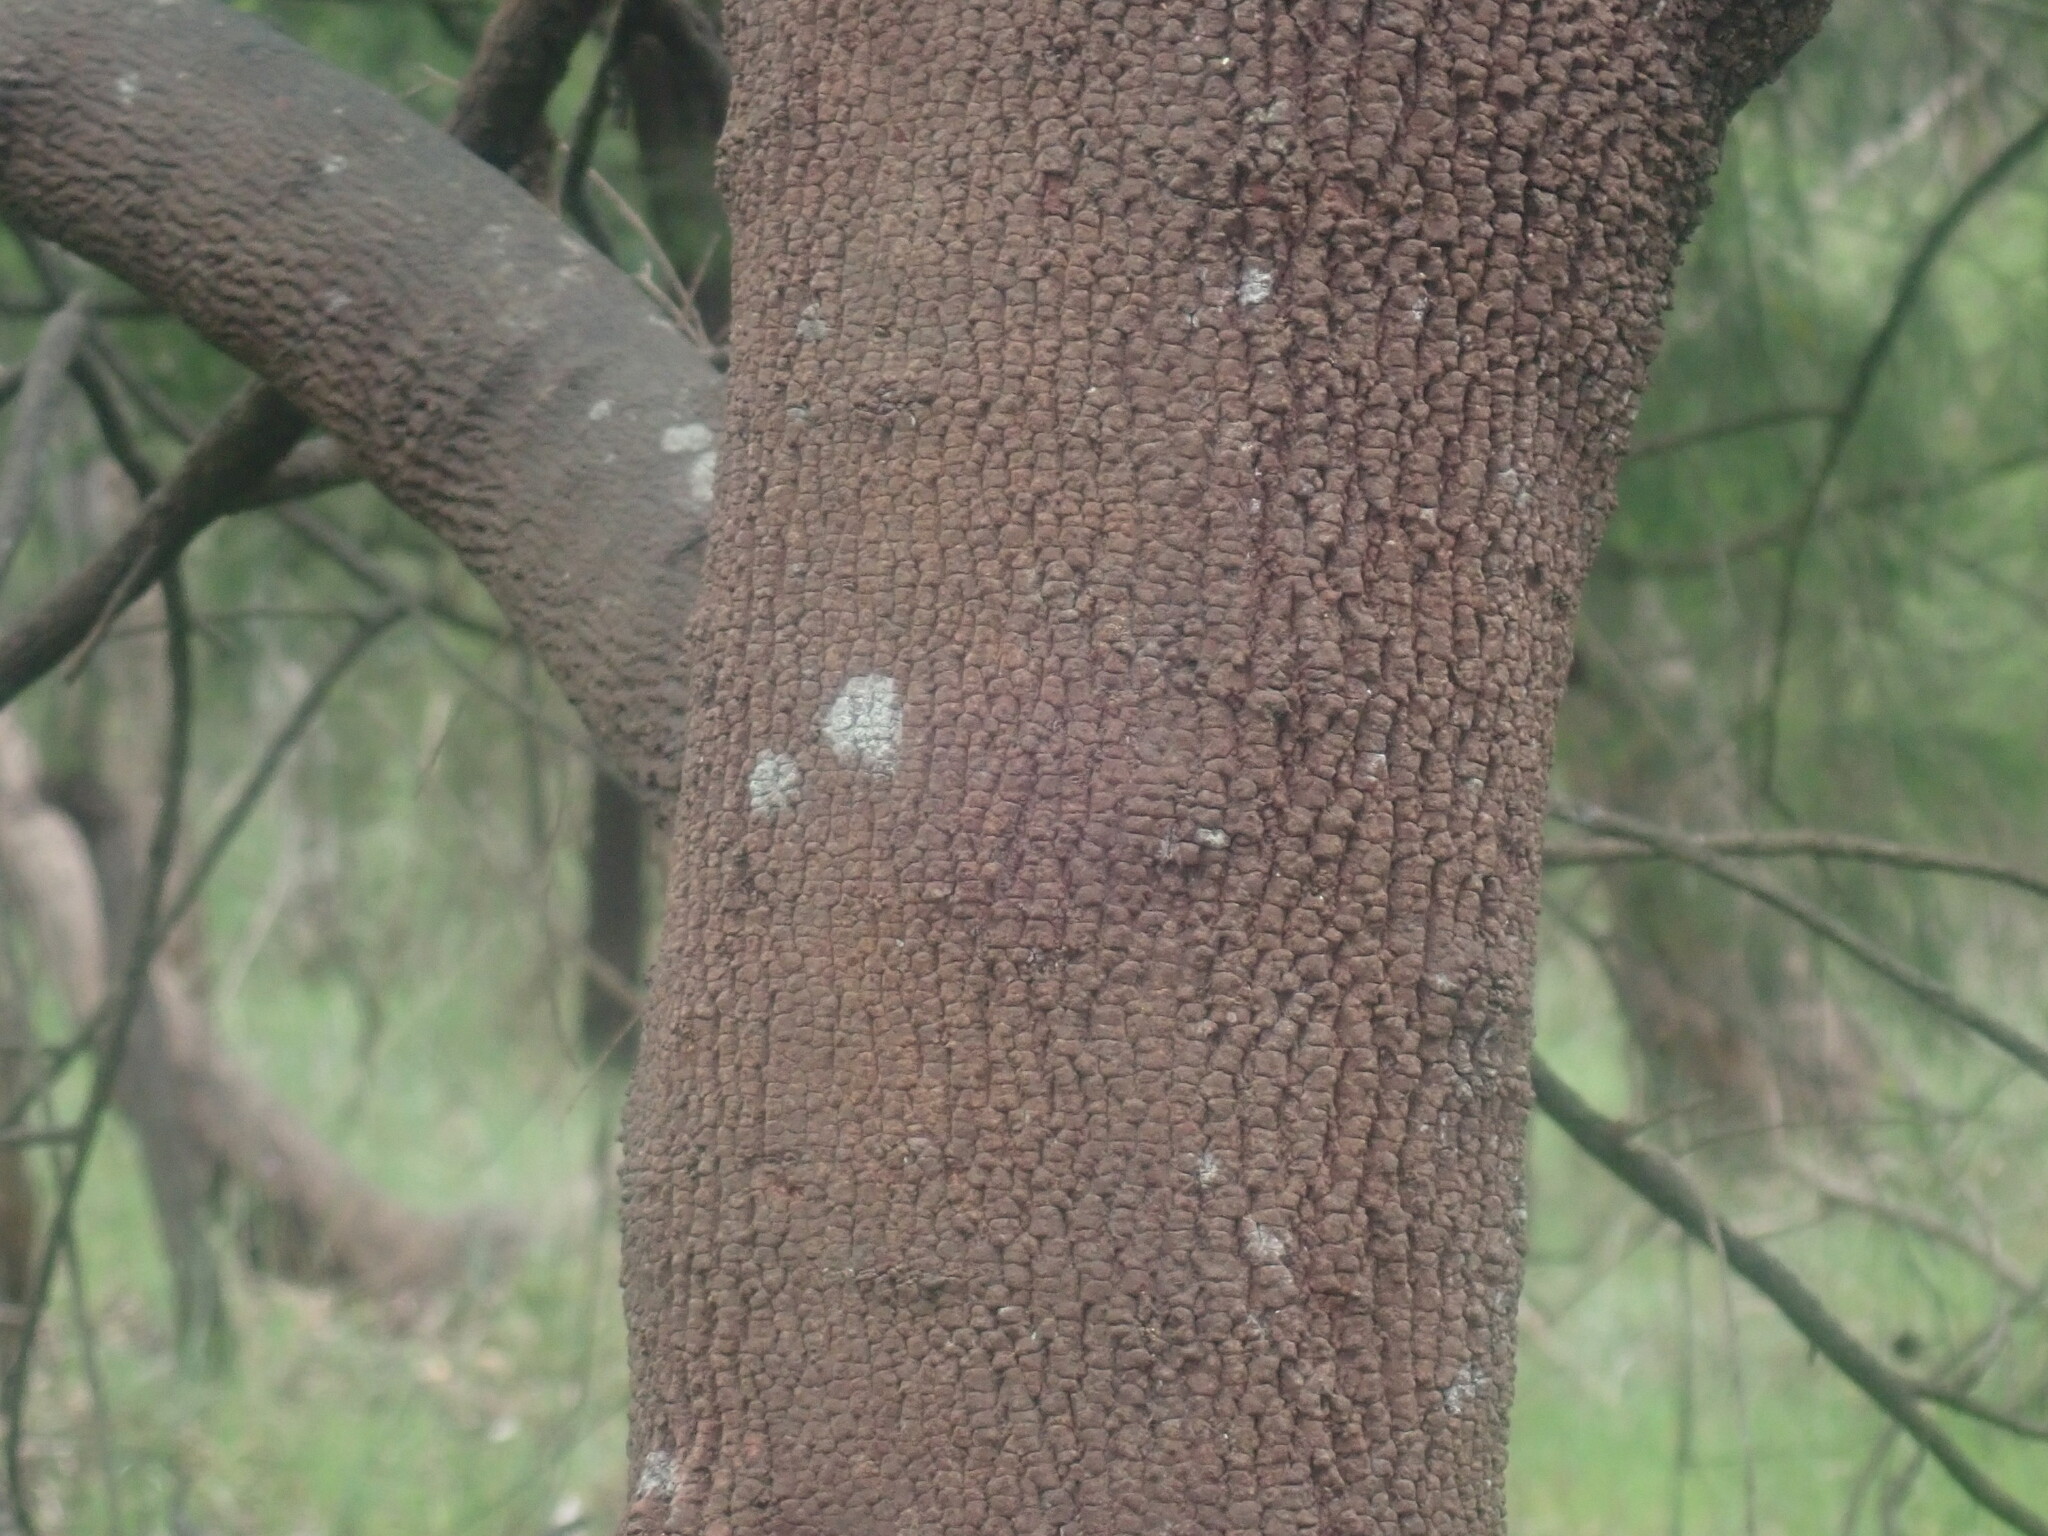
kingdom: Plantae
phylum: Tracheophyta
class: Magnoliopsida
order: Santalales
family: Santalaceae
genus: Exocarpos
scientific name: Exocarpos cupressiformis
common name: Cherry ballart
